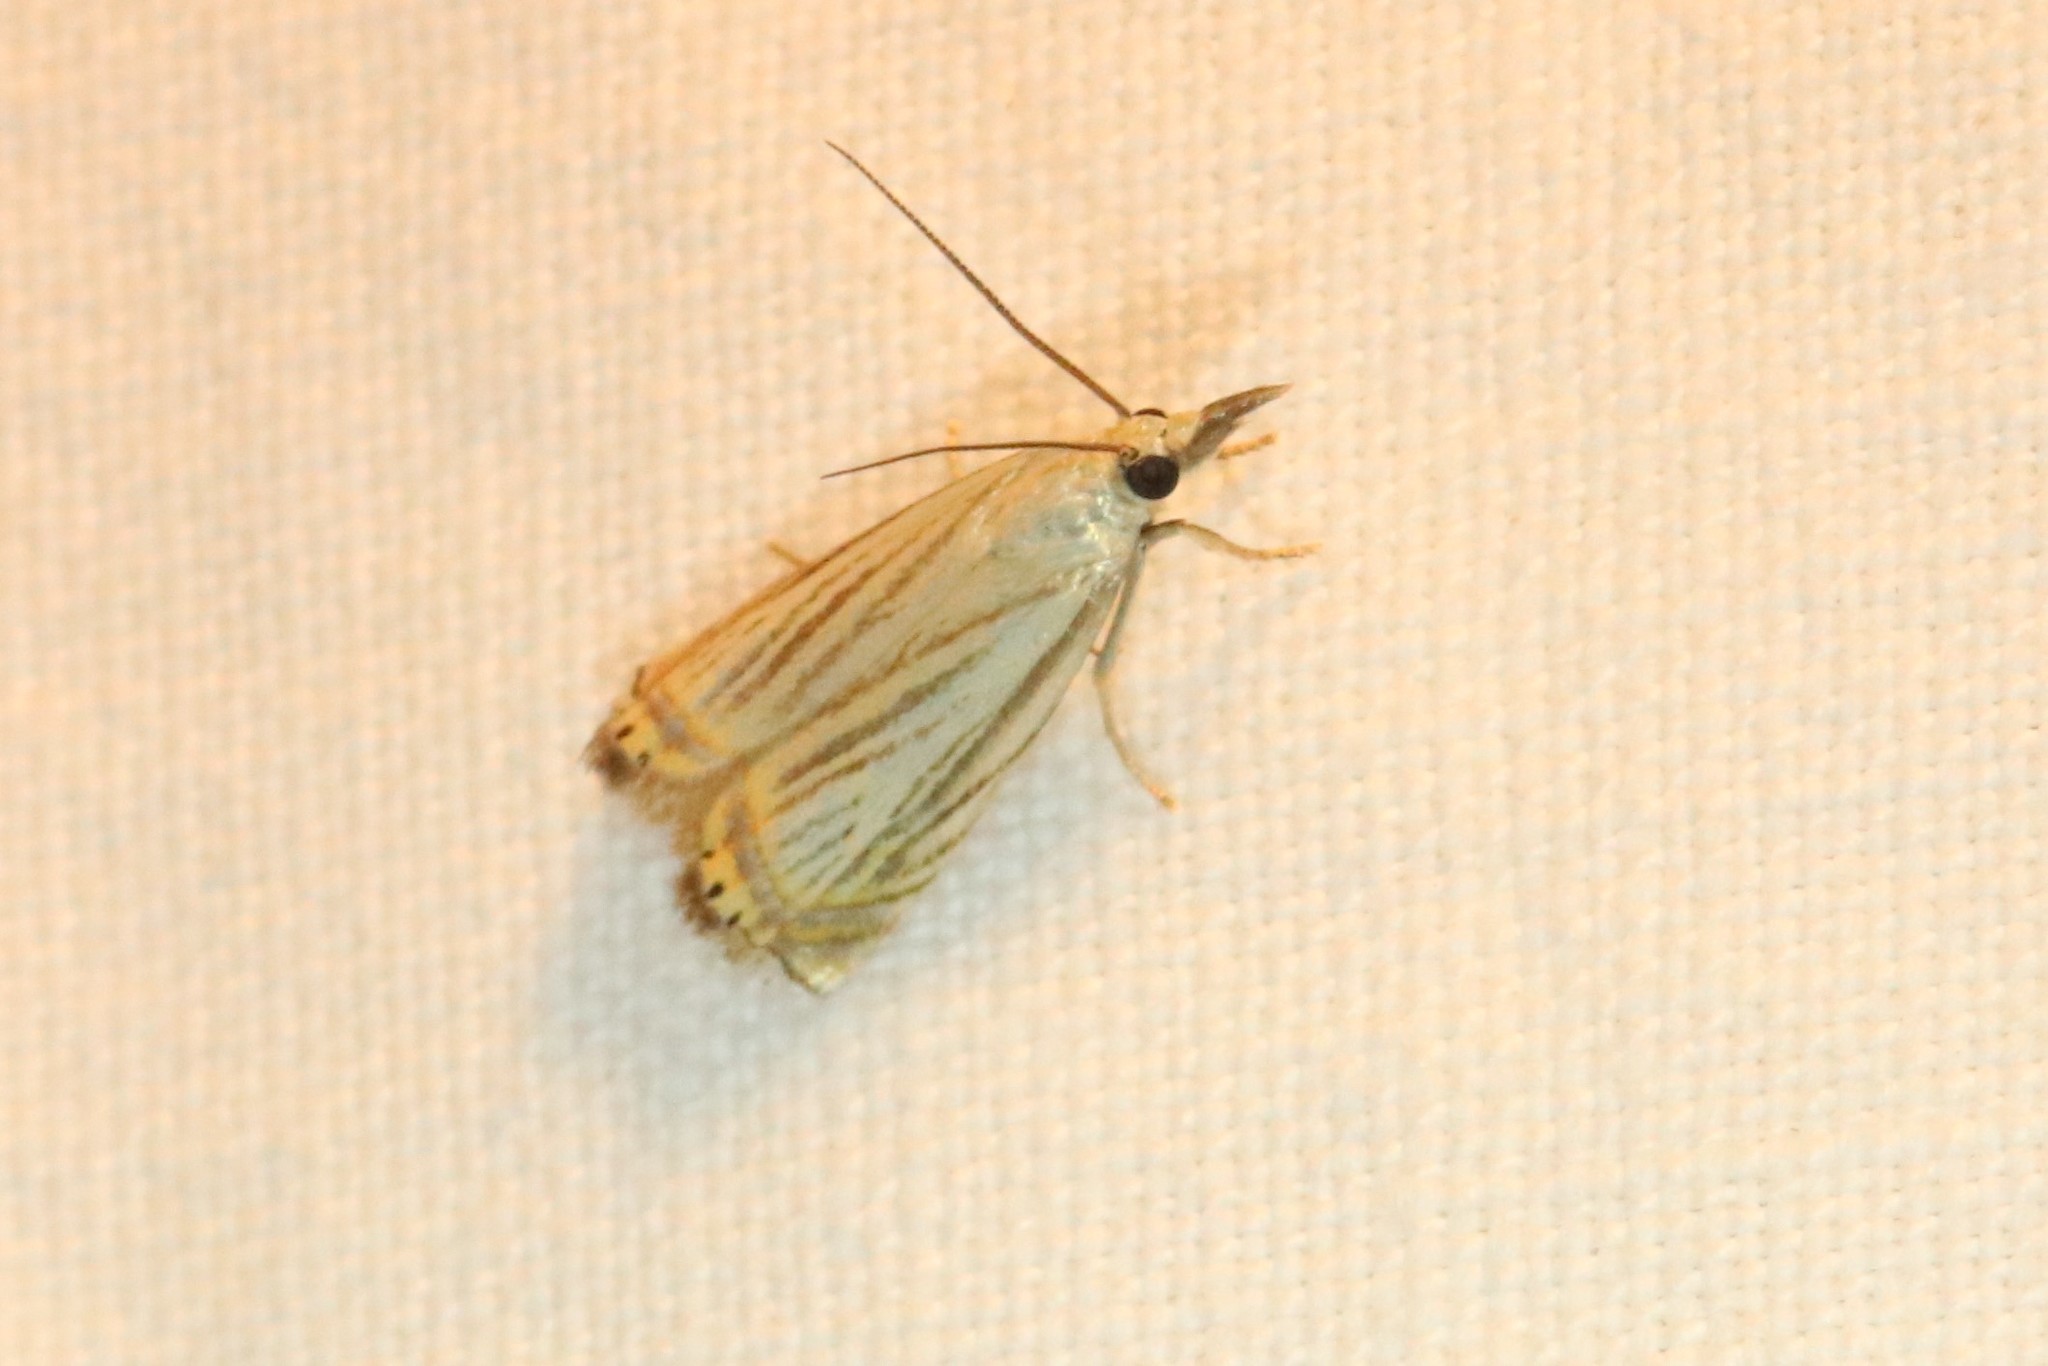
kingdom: Animalia
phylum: Arthropoda
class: Insecta
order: Lepidoptera
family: Crambidae
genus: Chrysoteuchia
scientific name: Chrysoteuchia topiarius
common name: Topiary grass-veneer
